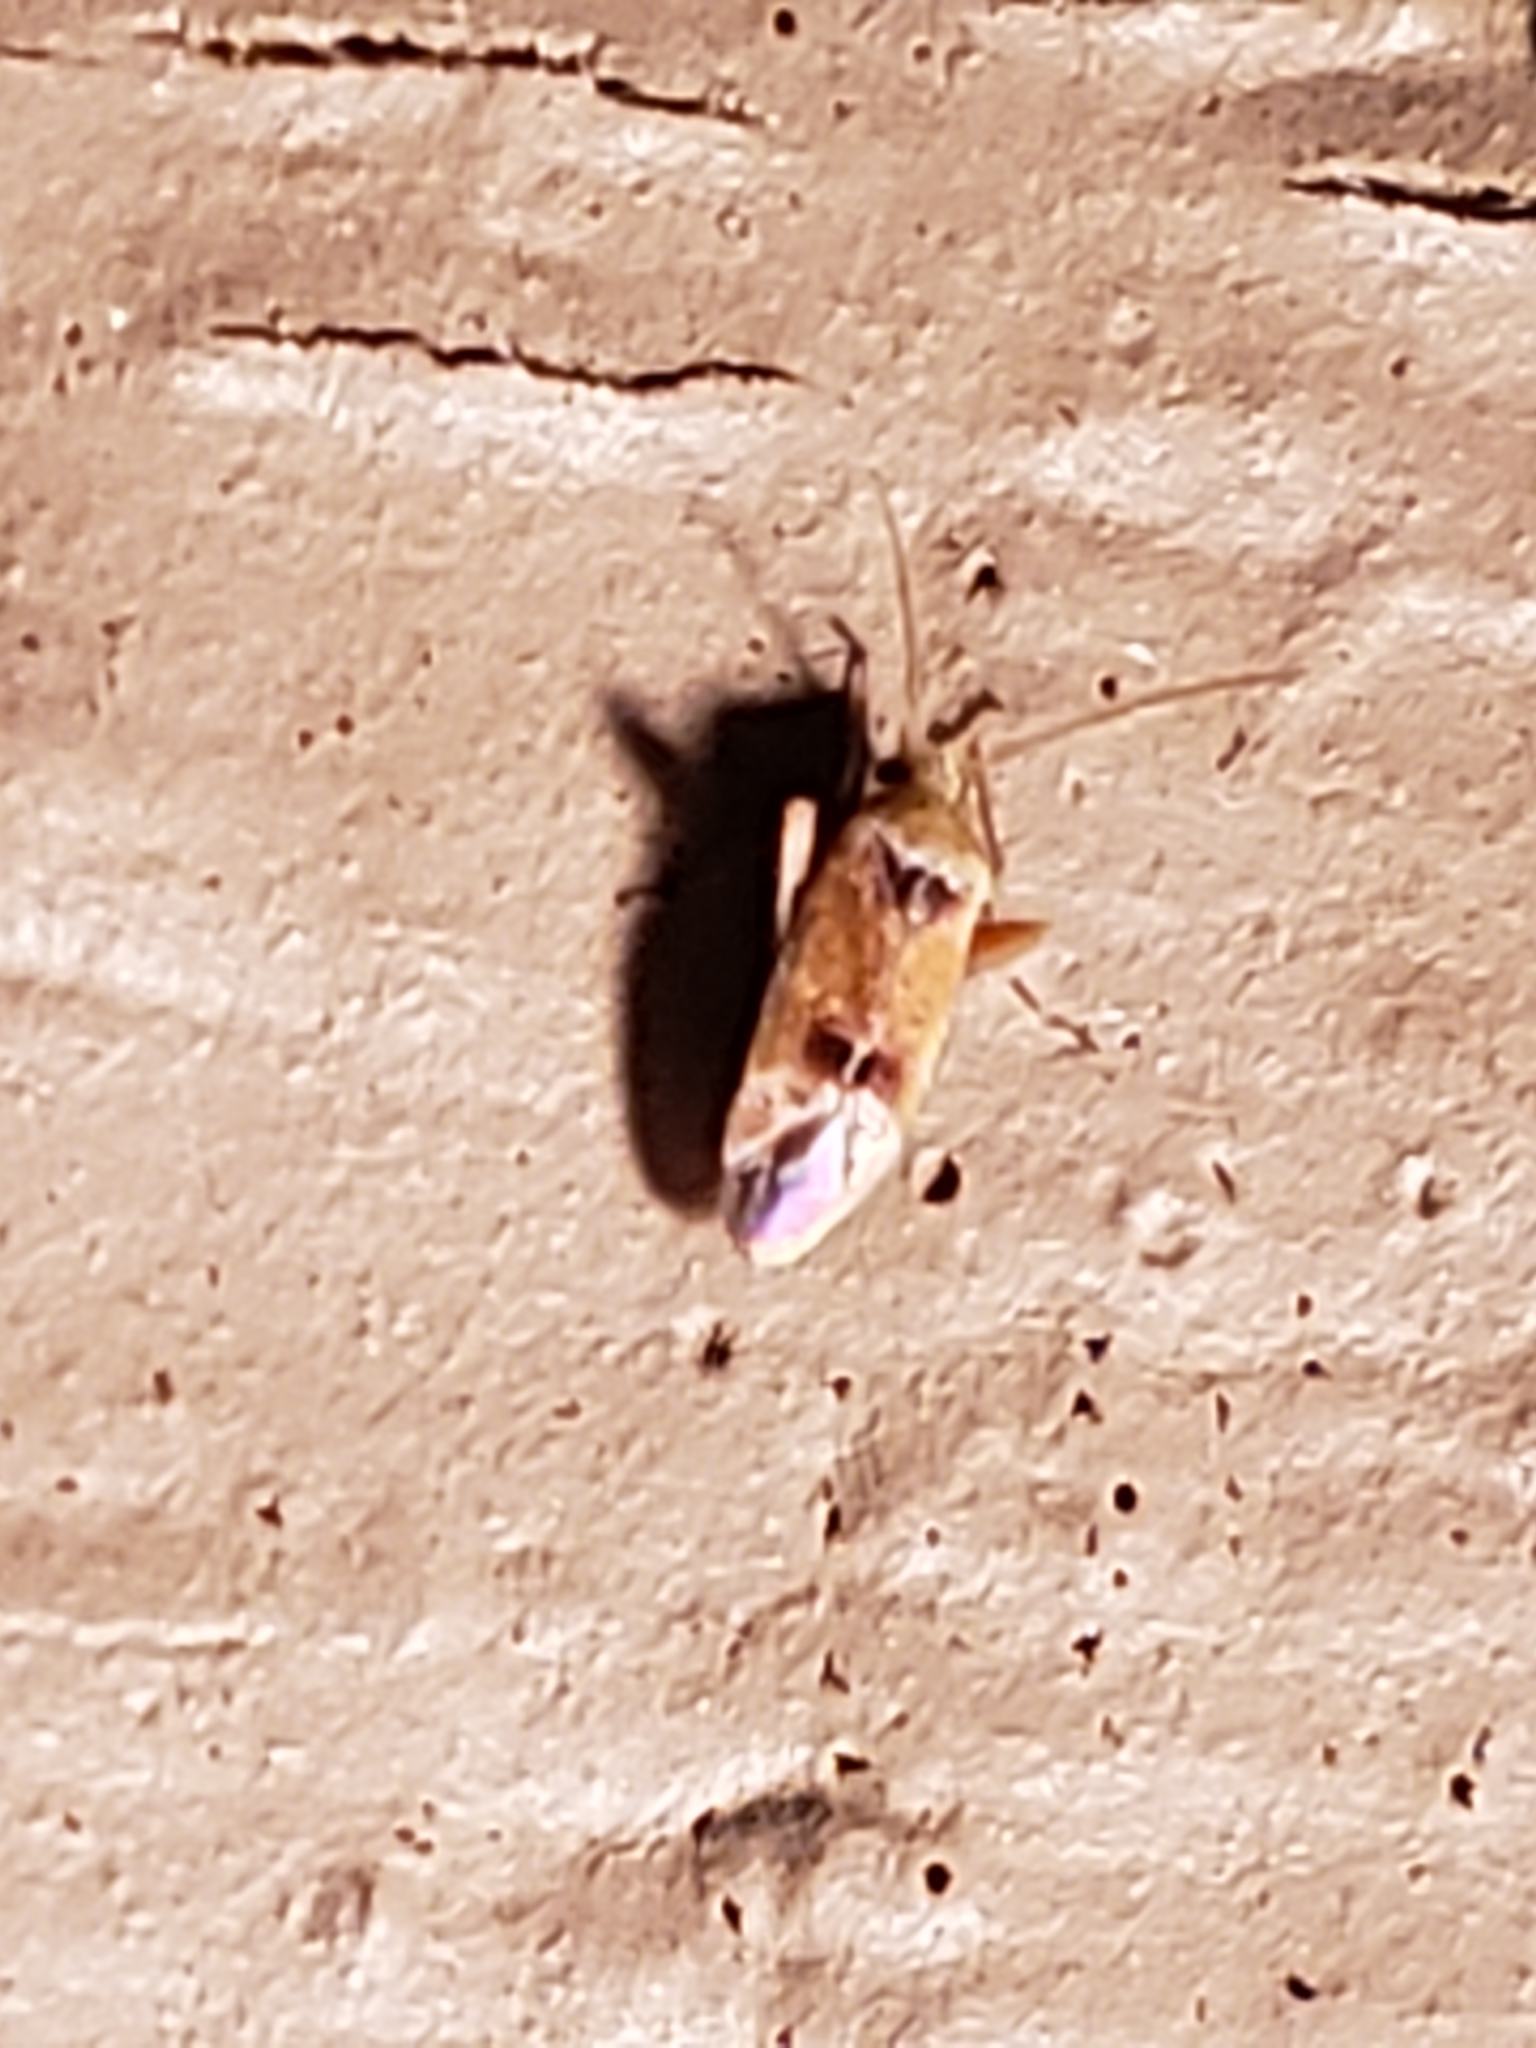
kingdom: Animalia
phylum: Arthropoda
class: Insecta
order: Hemiptera
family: Miridae
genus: Parthenicus
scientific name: Parthenicus juniperi
